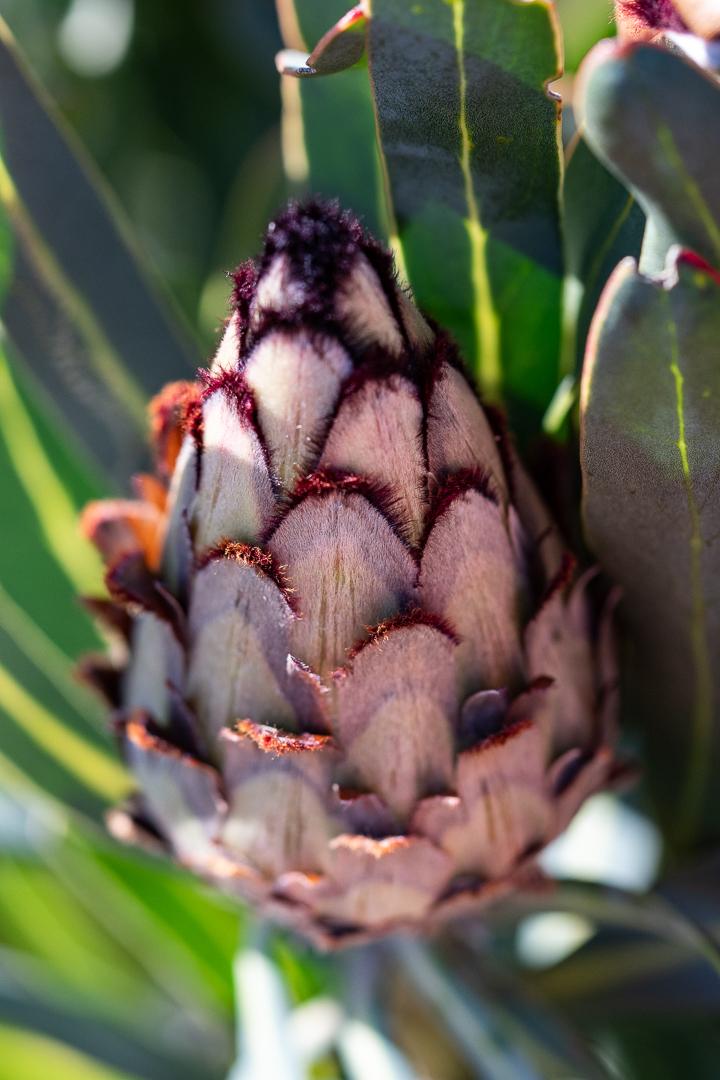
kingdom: Plantae
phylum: Tracheophyta
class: Magnoliopsida
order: Proteales
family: Proteaceae
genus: Protea
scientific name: Protea neriifolia
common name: Blue sugarbush
